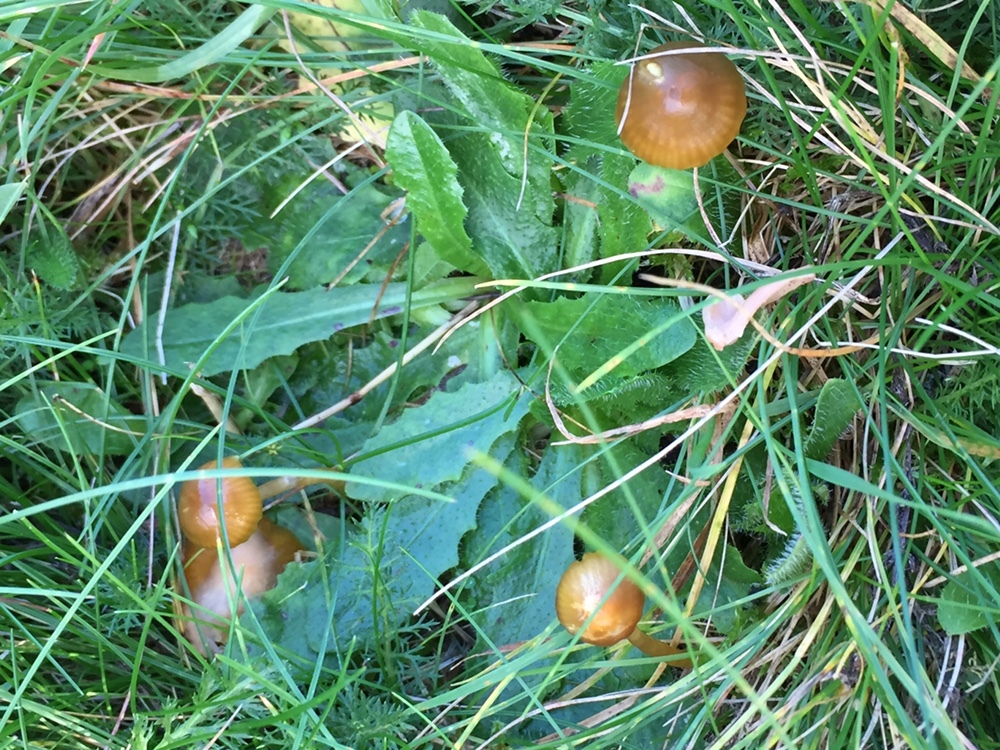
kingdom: Fungi
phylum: Basidiomycota
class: Agaricomycetes
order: Agaricales
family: Hygrophoraceae
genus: Gliophorus
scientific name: Gliophorus psittacinus
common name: Parrot wax-cap
